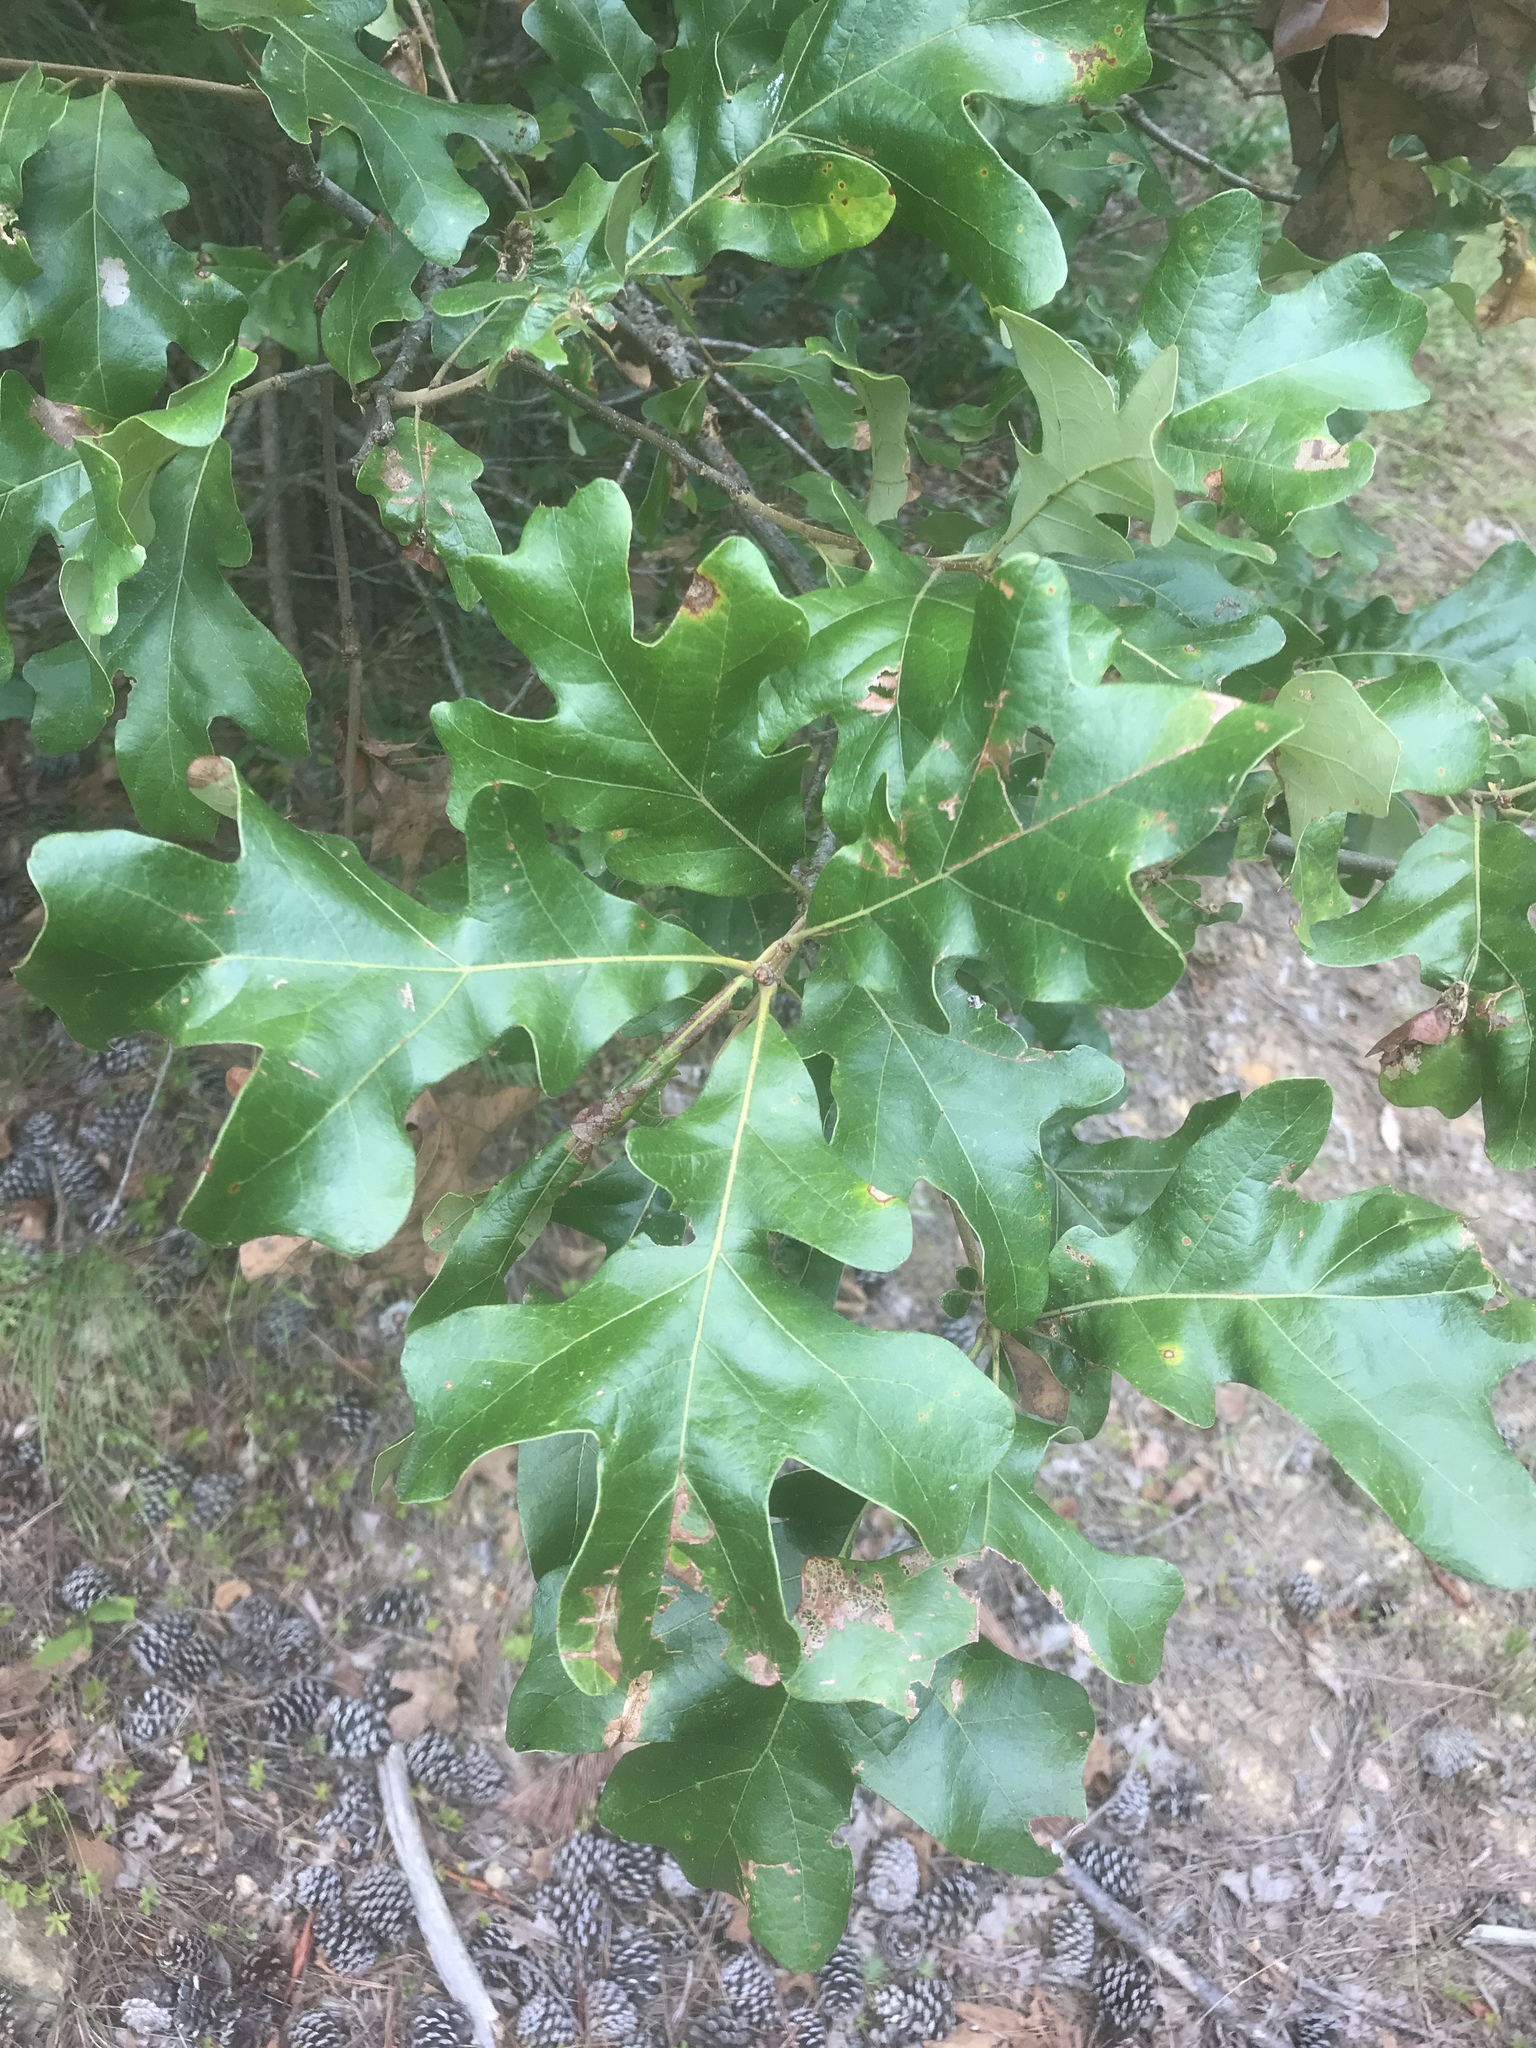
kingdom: Plantae
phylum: Tracheophyta
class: Magnoliopsida
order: Fagales
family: Fagaceae
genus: Quercus
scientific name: Quercus stellata
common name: Post oak
